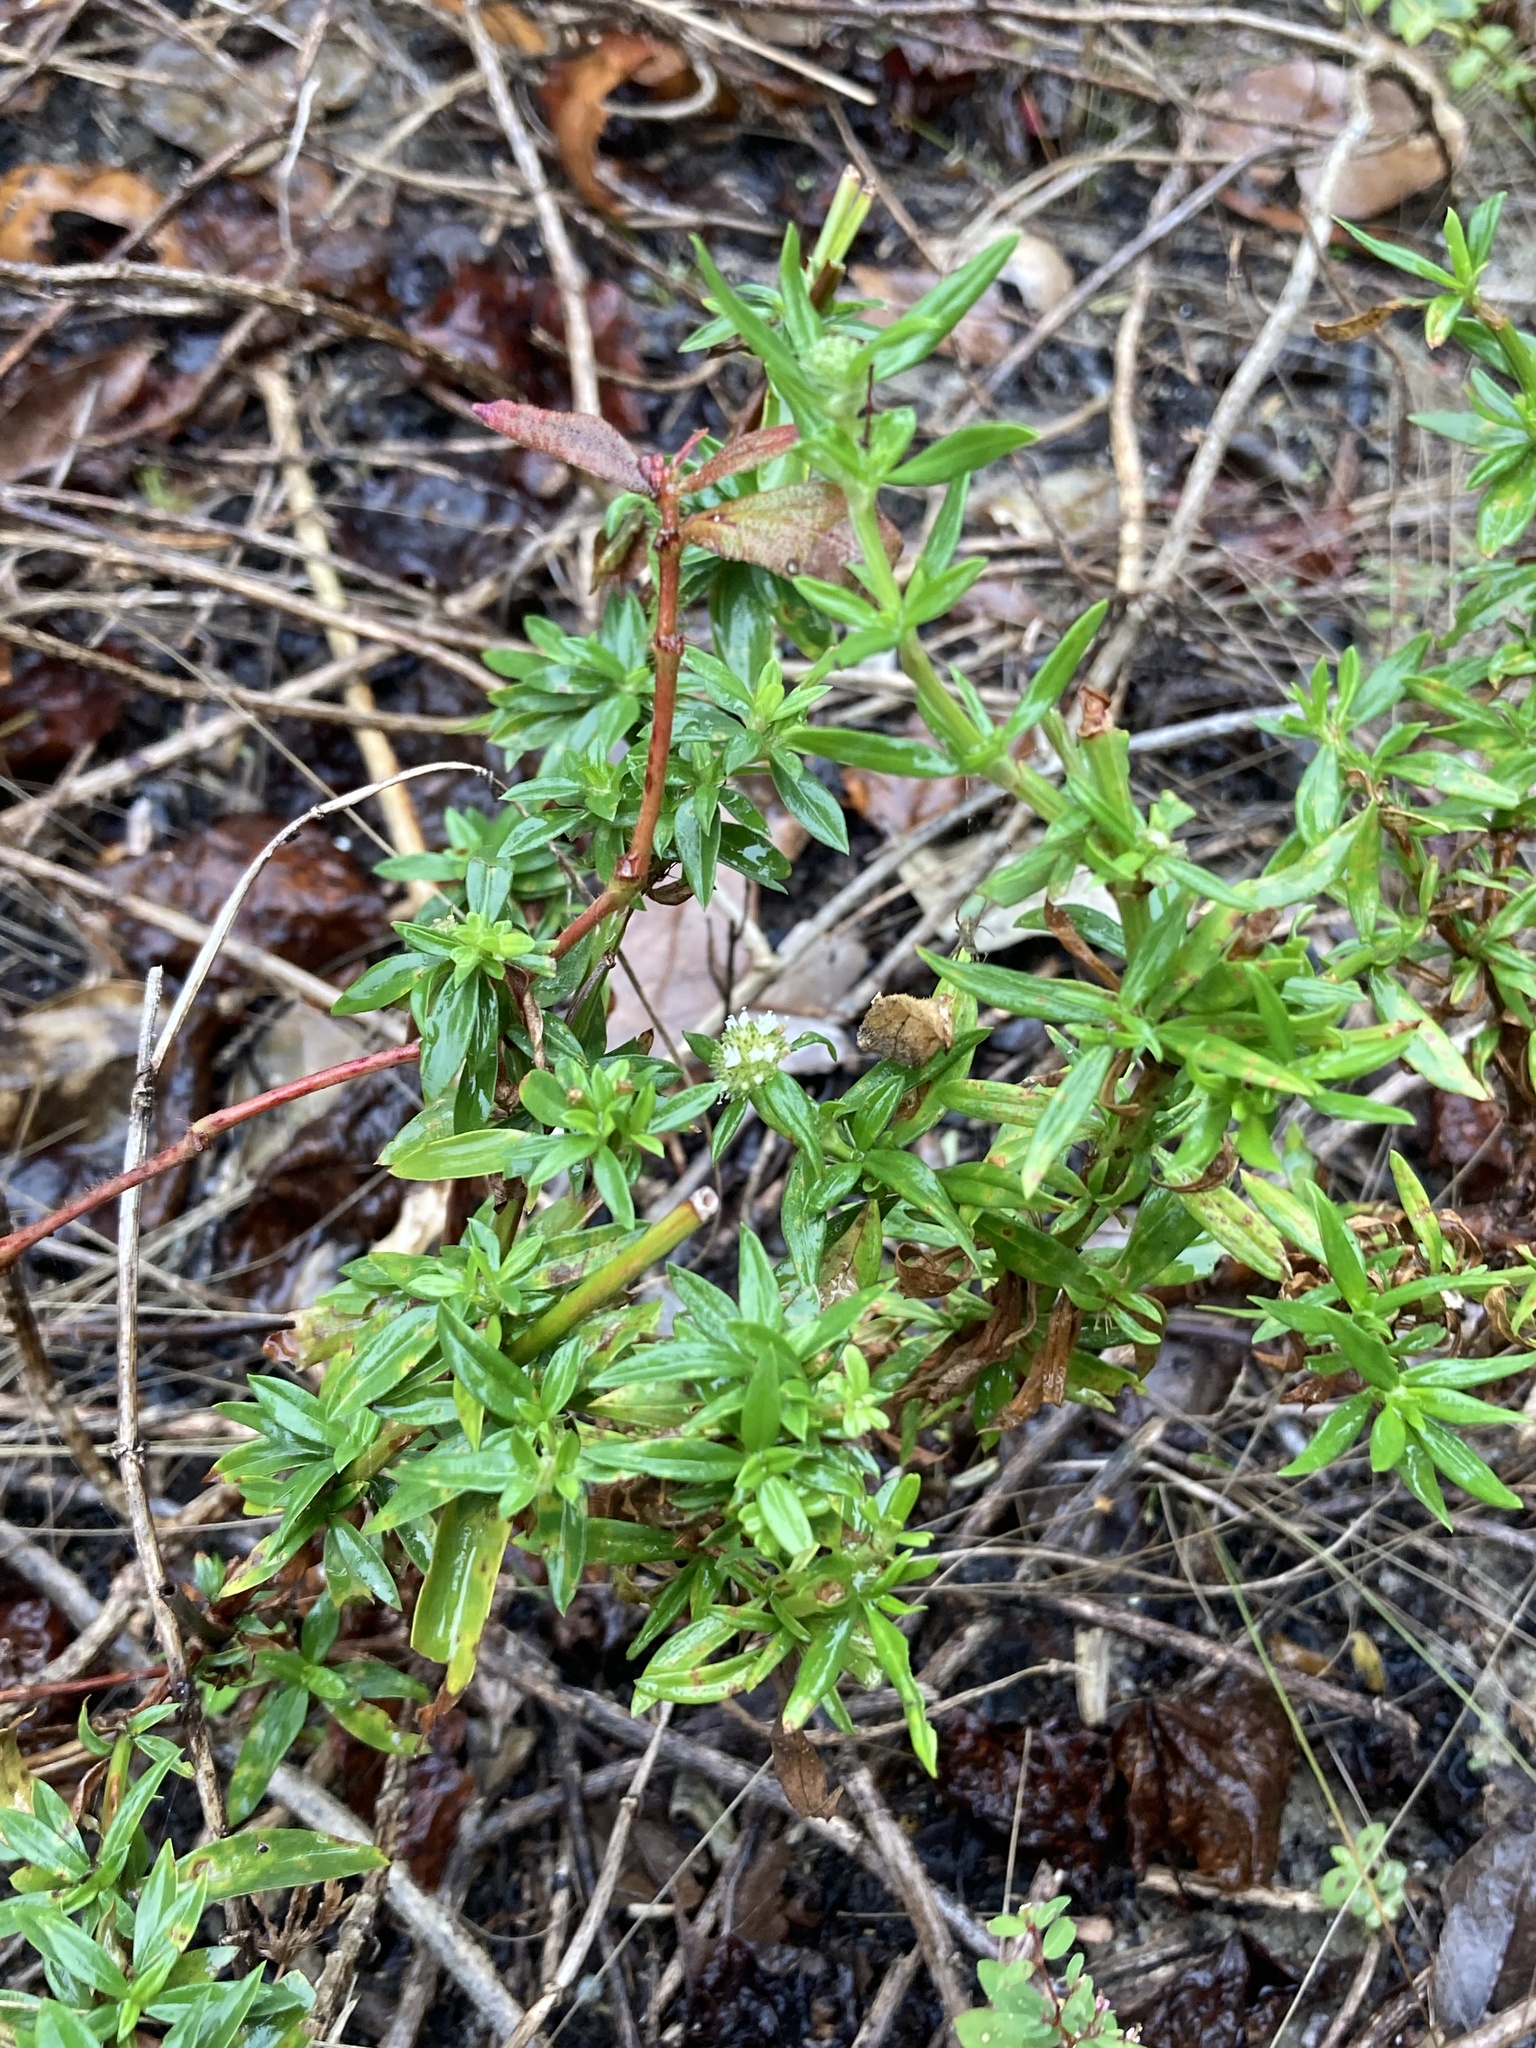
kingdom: Plantae
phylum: Tracheophyta
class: Magnoliopsida
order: Gentianales
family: Rubiaceae
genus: Spermacoce
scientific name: Spermacoce verticillata
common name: Shrubby false buttonweed
